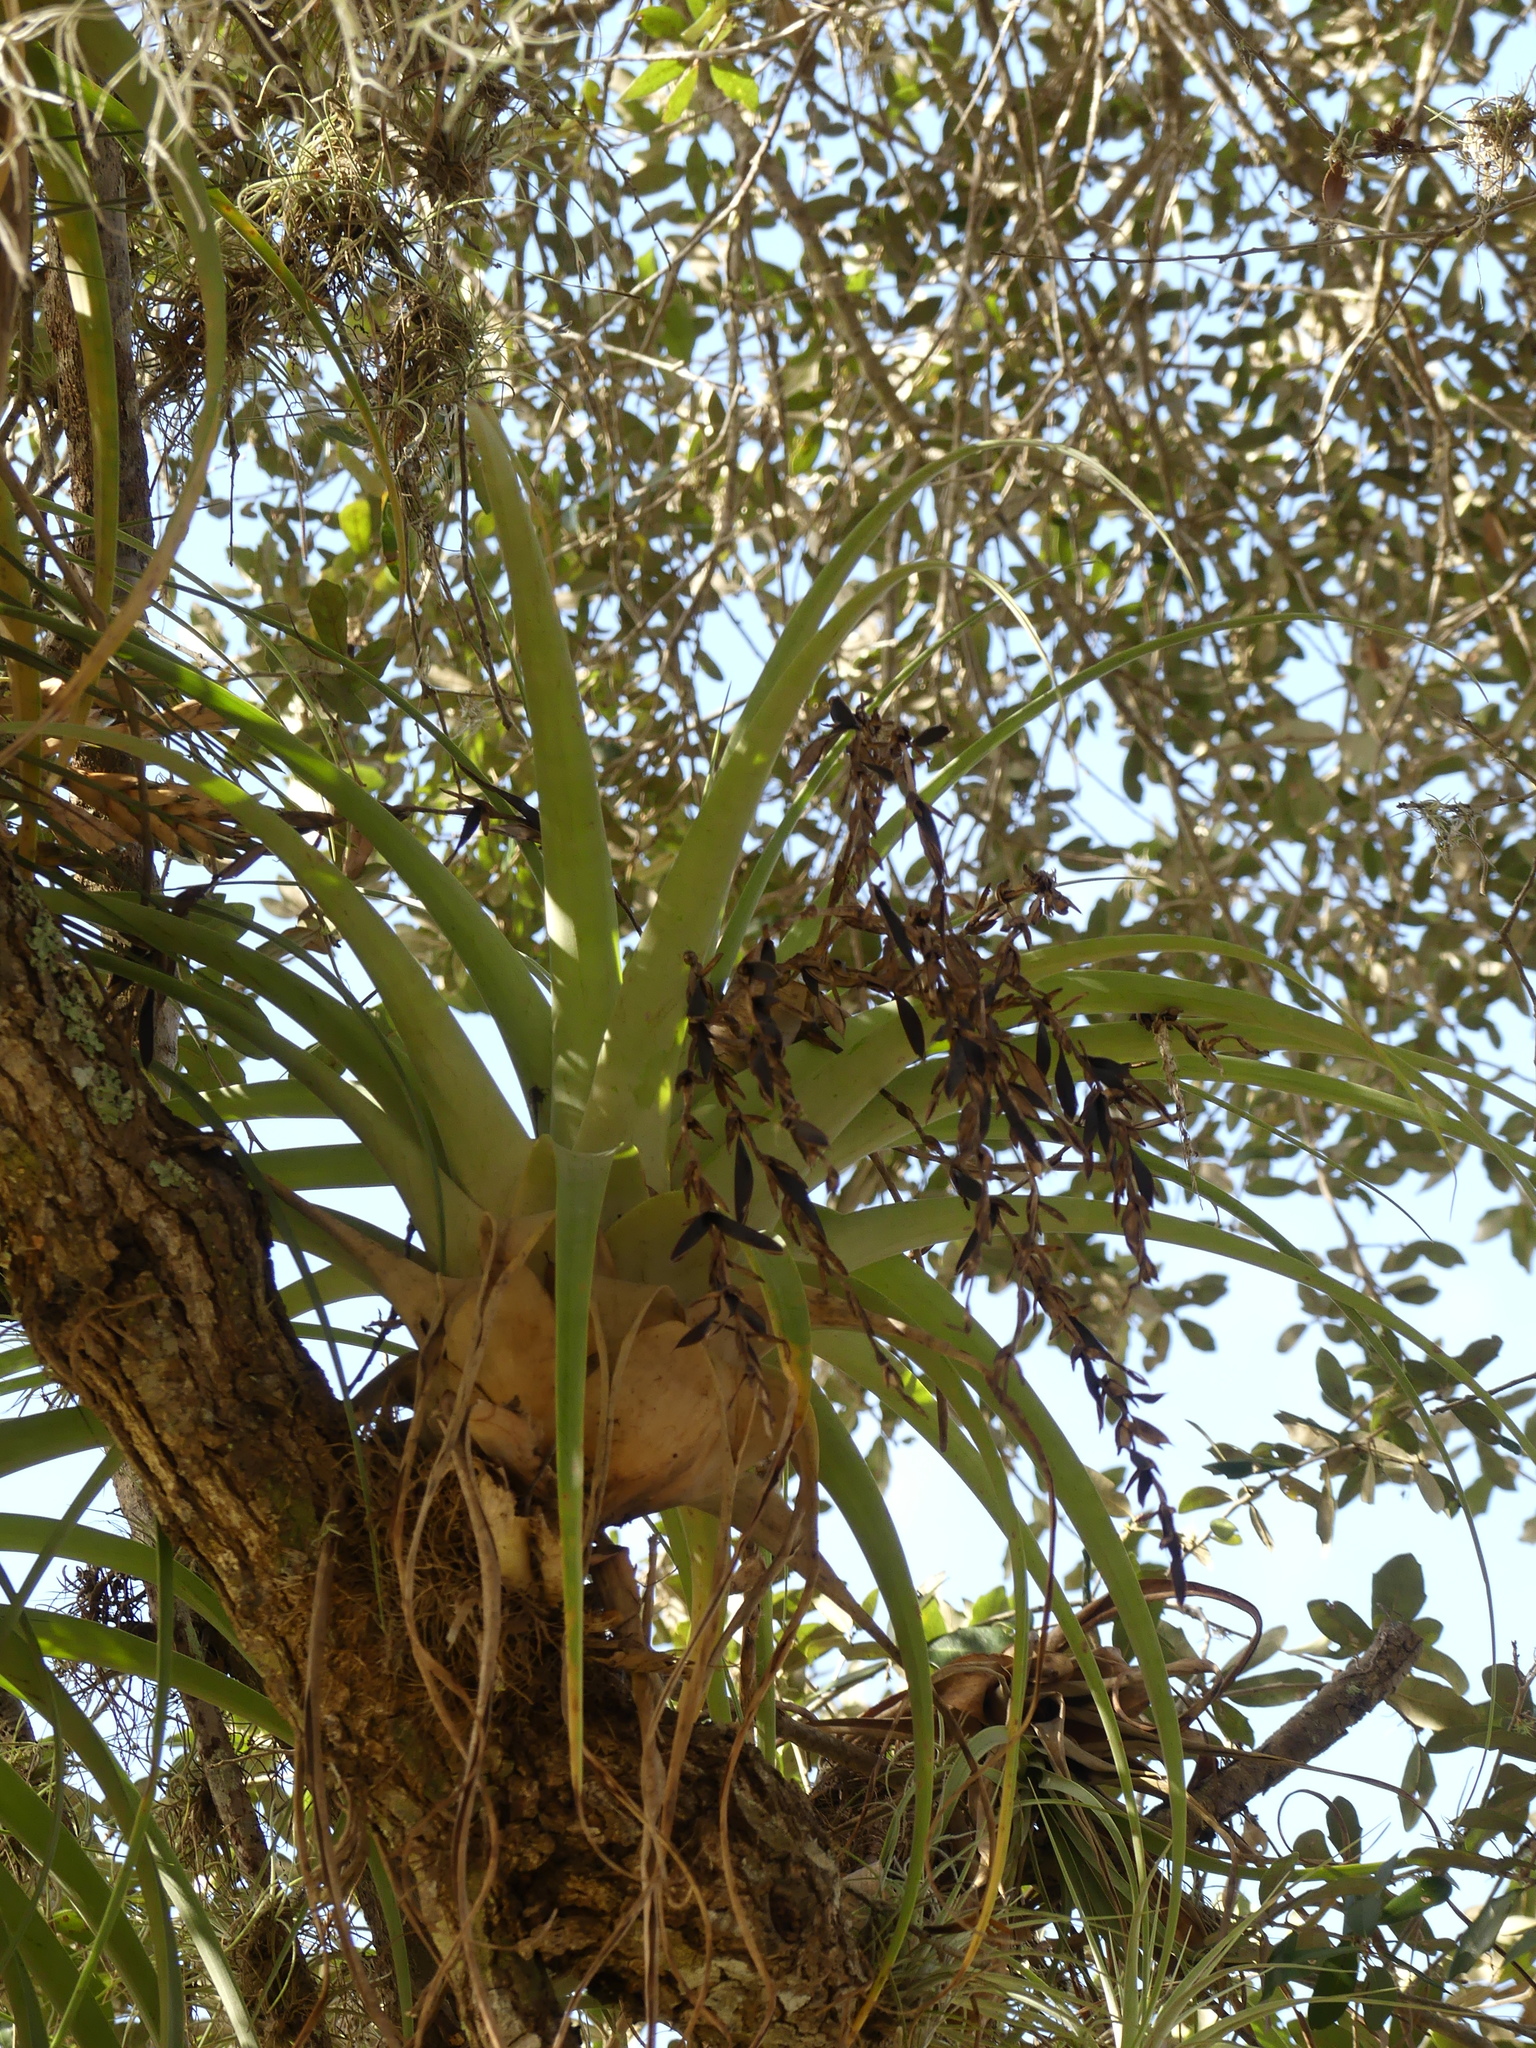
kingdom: Plantae
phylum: Tracheophyta
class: Liliopsida
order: Poales
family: Bromeliaceae
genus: Tillandsia
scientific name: Tillandsia utriculata
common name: Wild pine
